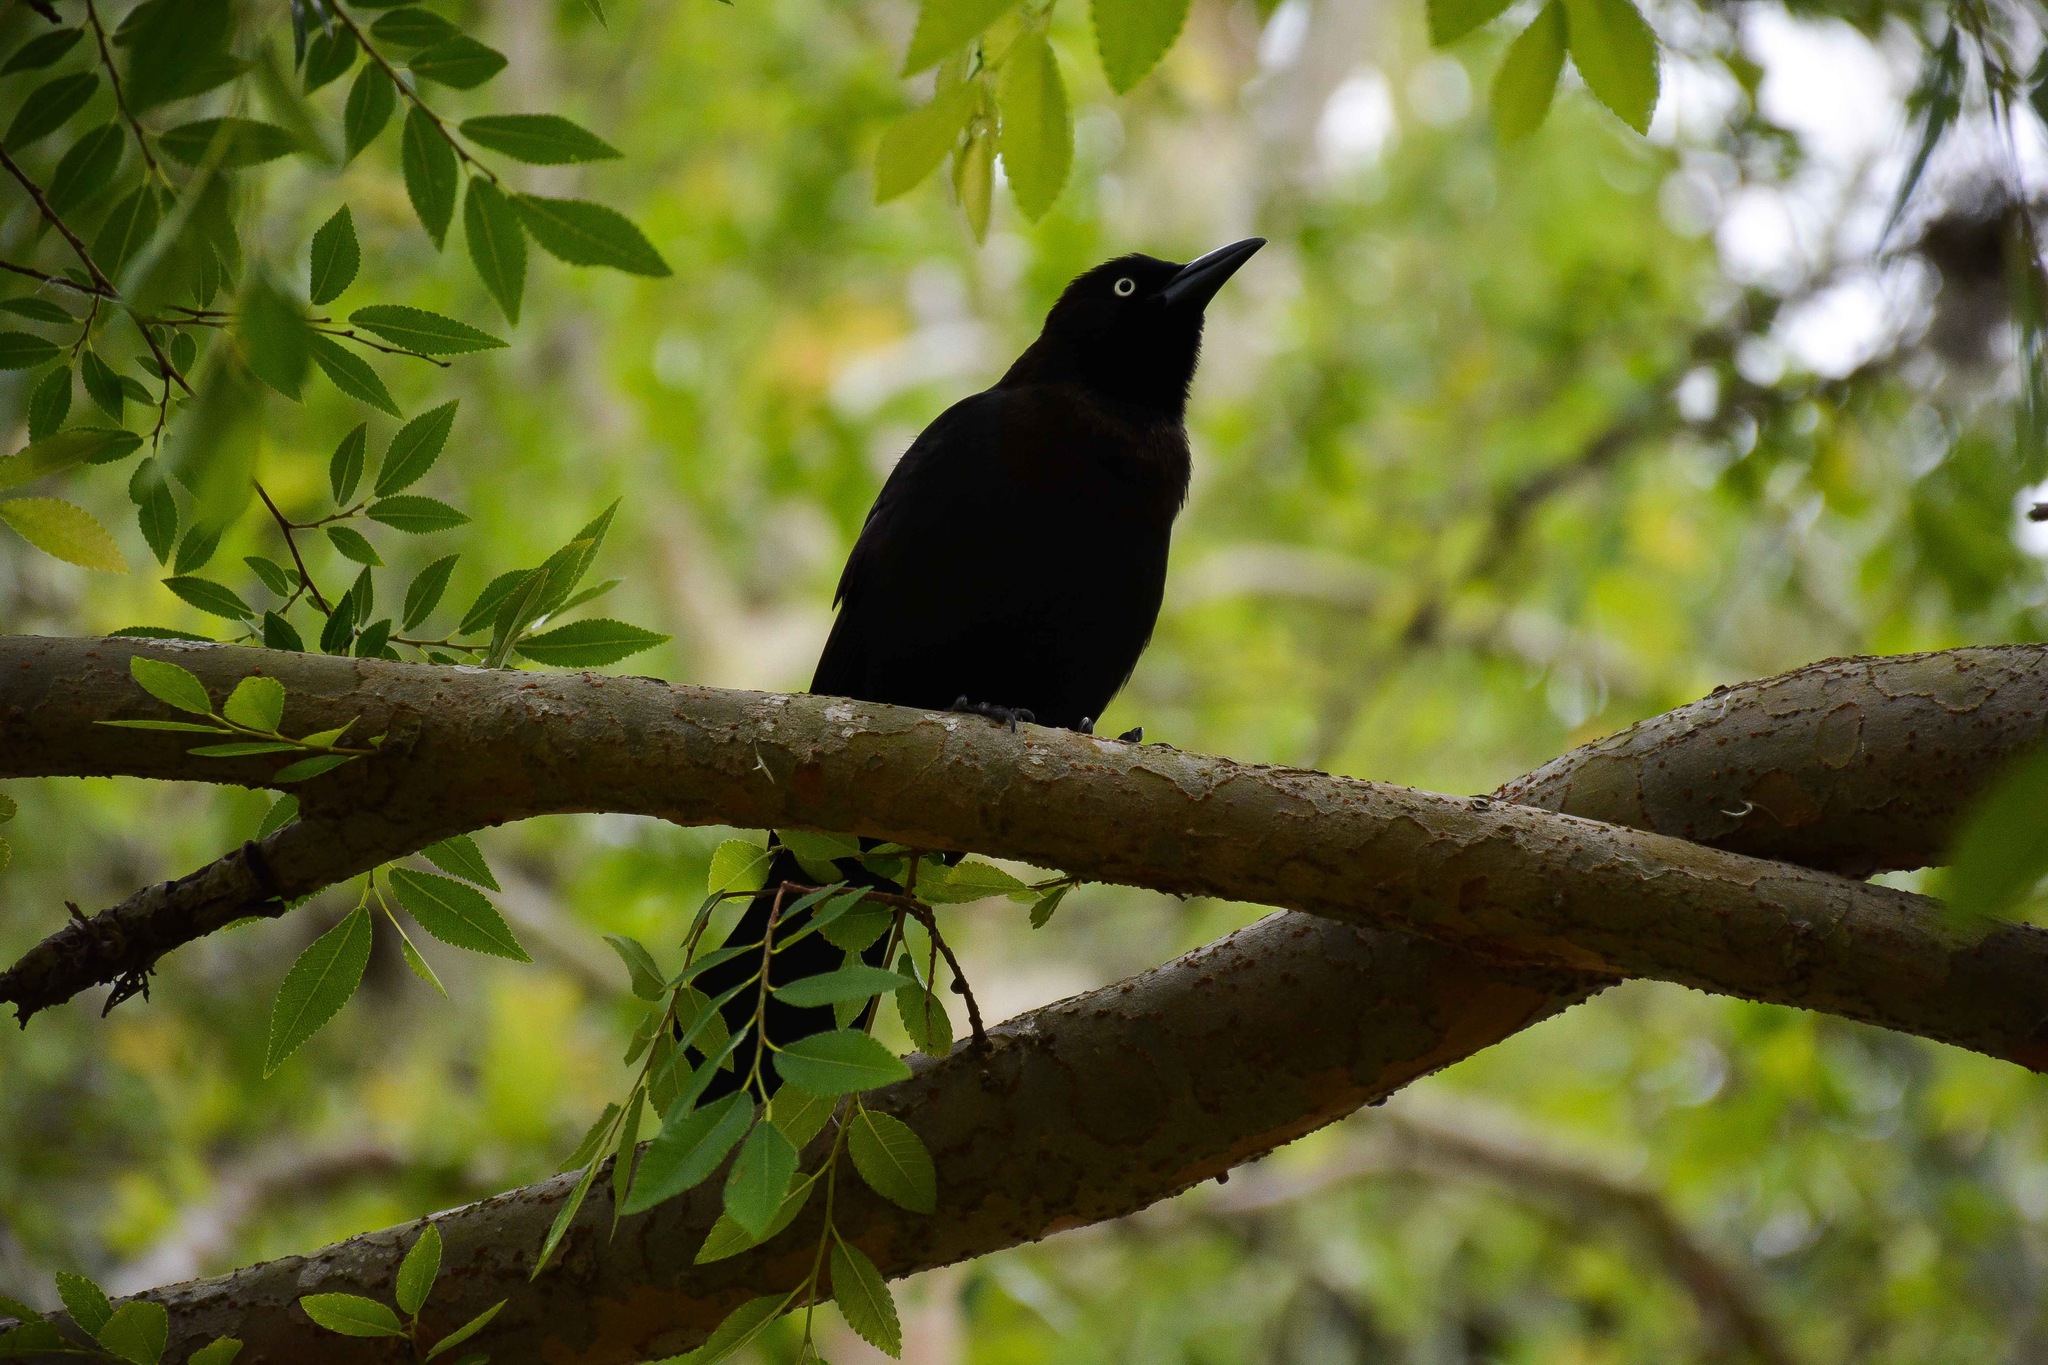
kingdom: Animalia
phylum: Chordata
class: Aves
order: Passeriformes
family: Icteridae
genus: Quiscalus
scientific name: Quiscalus quiscula
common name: Common grackle
